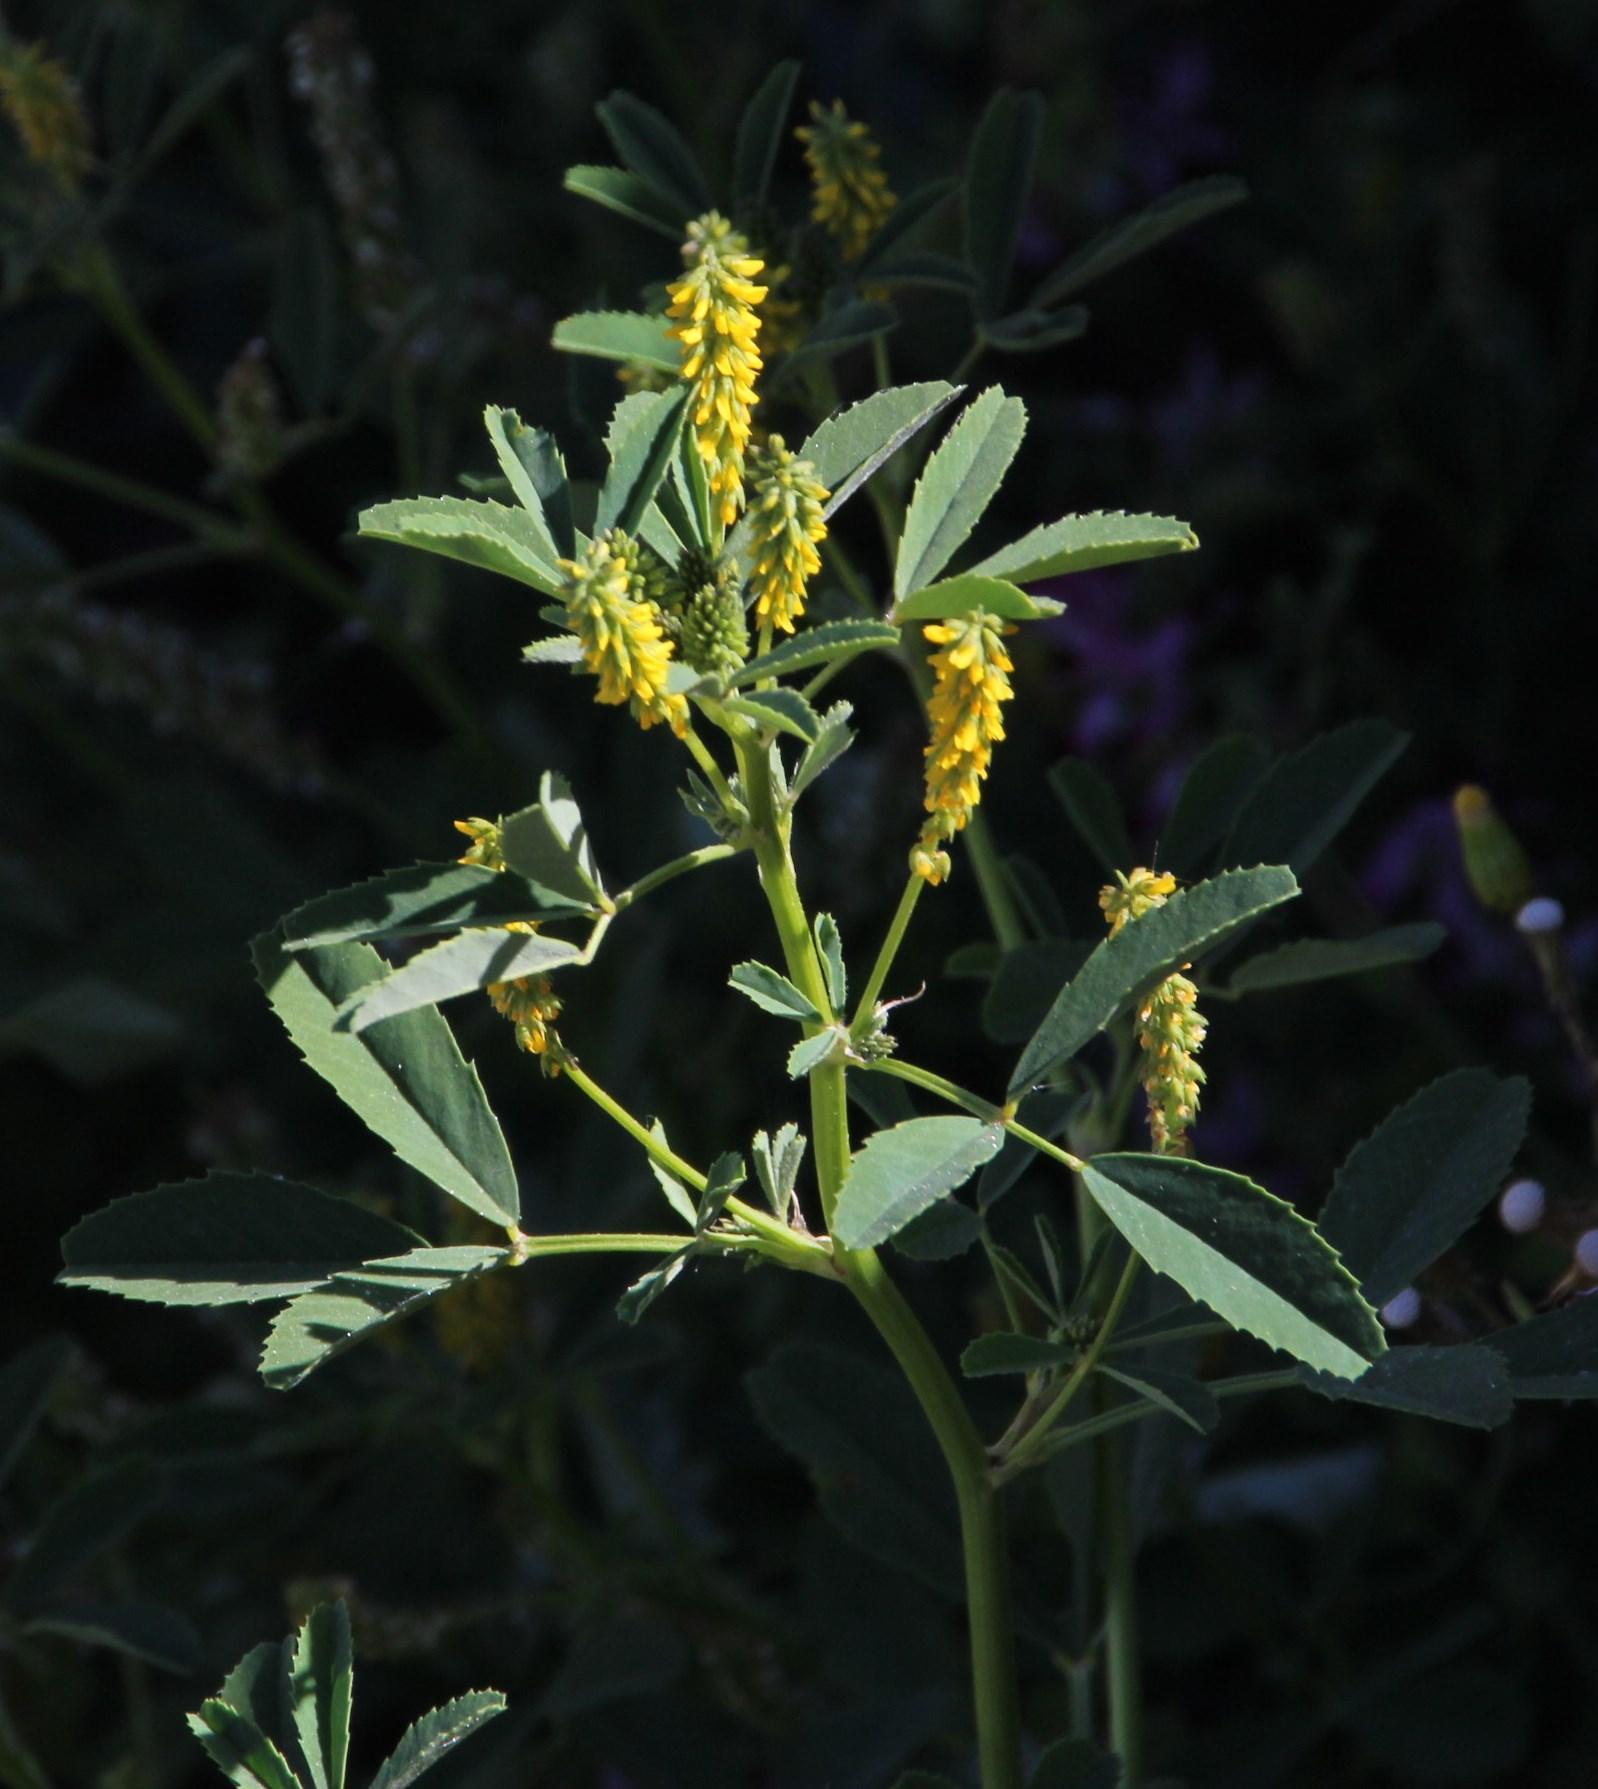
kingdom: Plantae
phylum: Tracheophyta
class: Magnoliopsida
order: Fabales
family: Fabaceae
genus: Melilotus
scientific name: Melilotus indicus
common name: Small melilot
